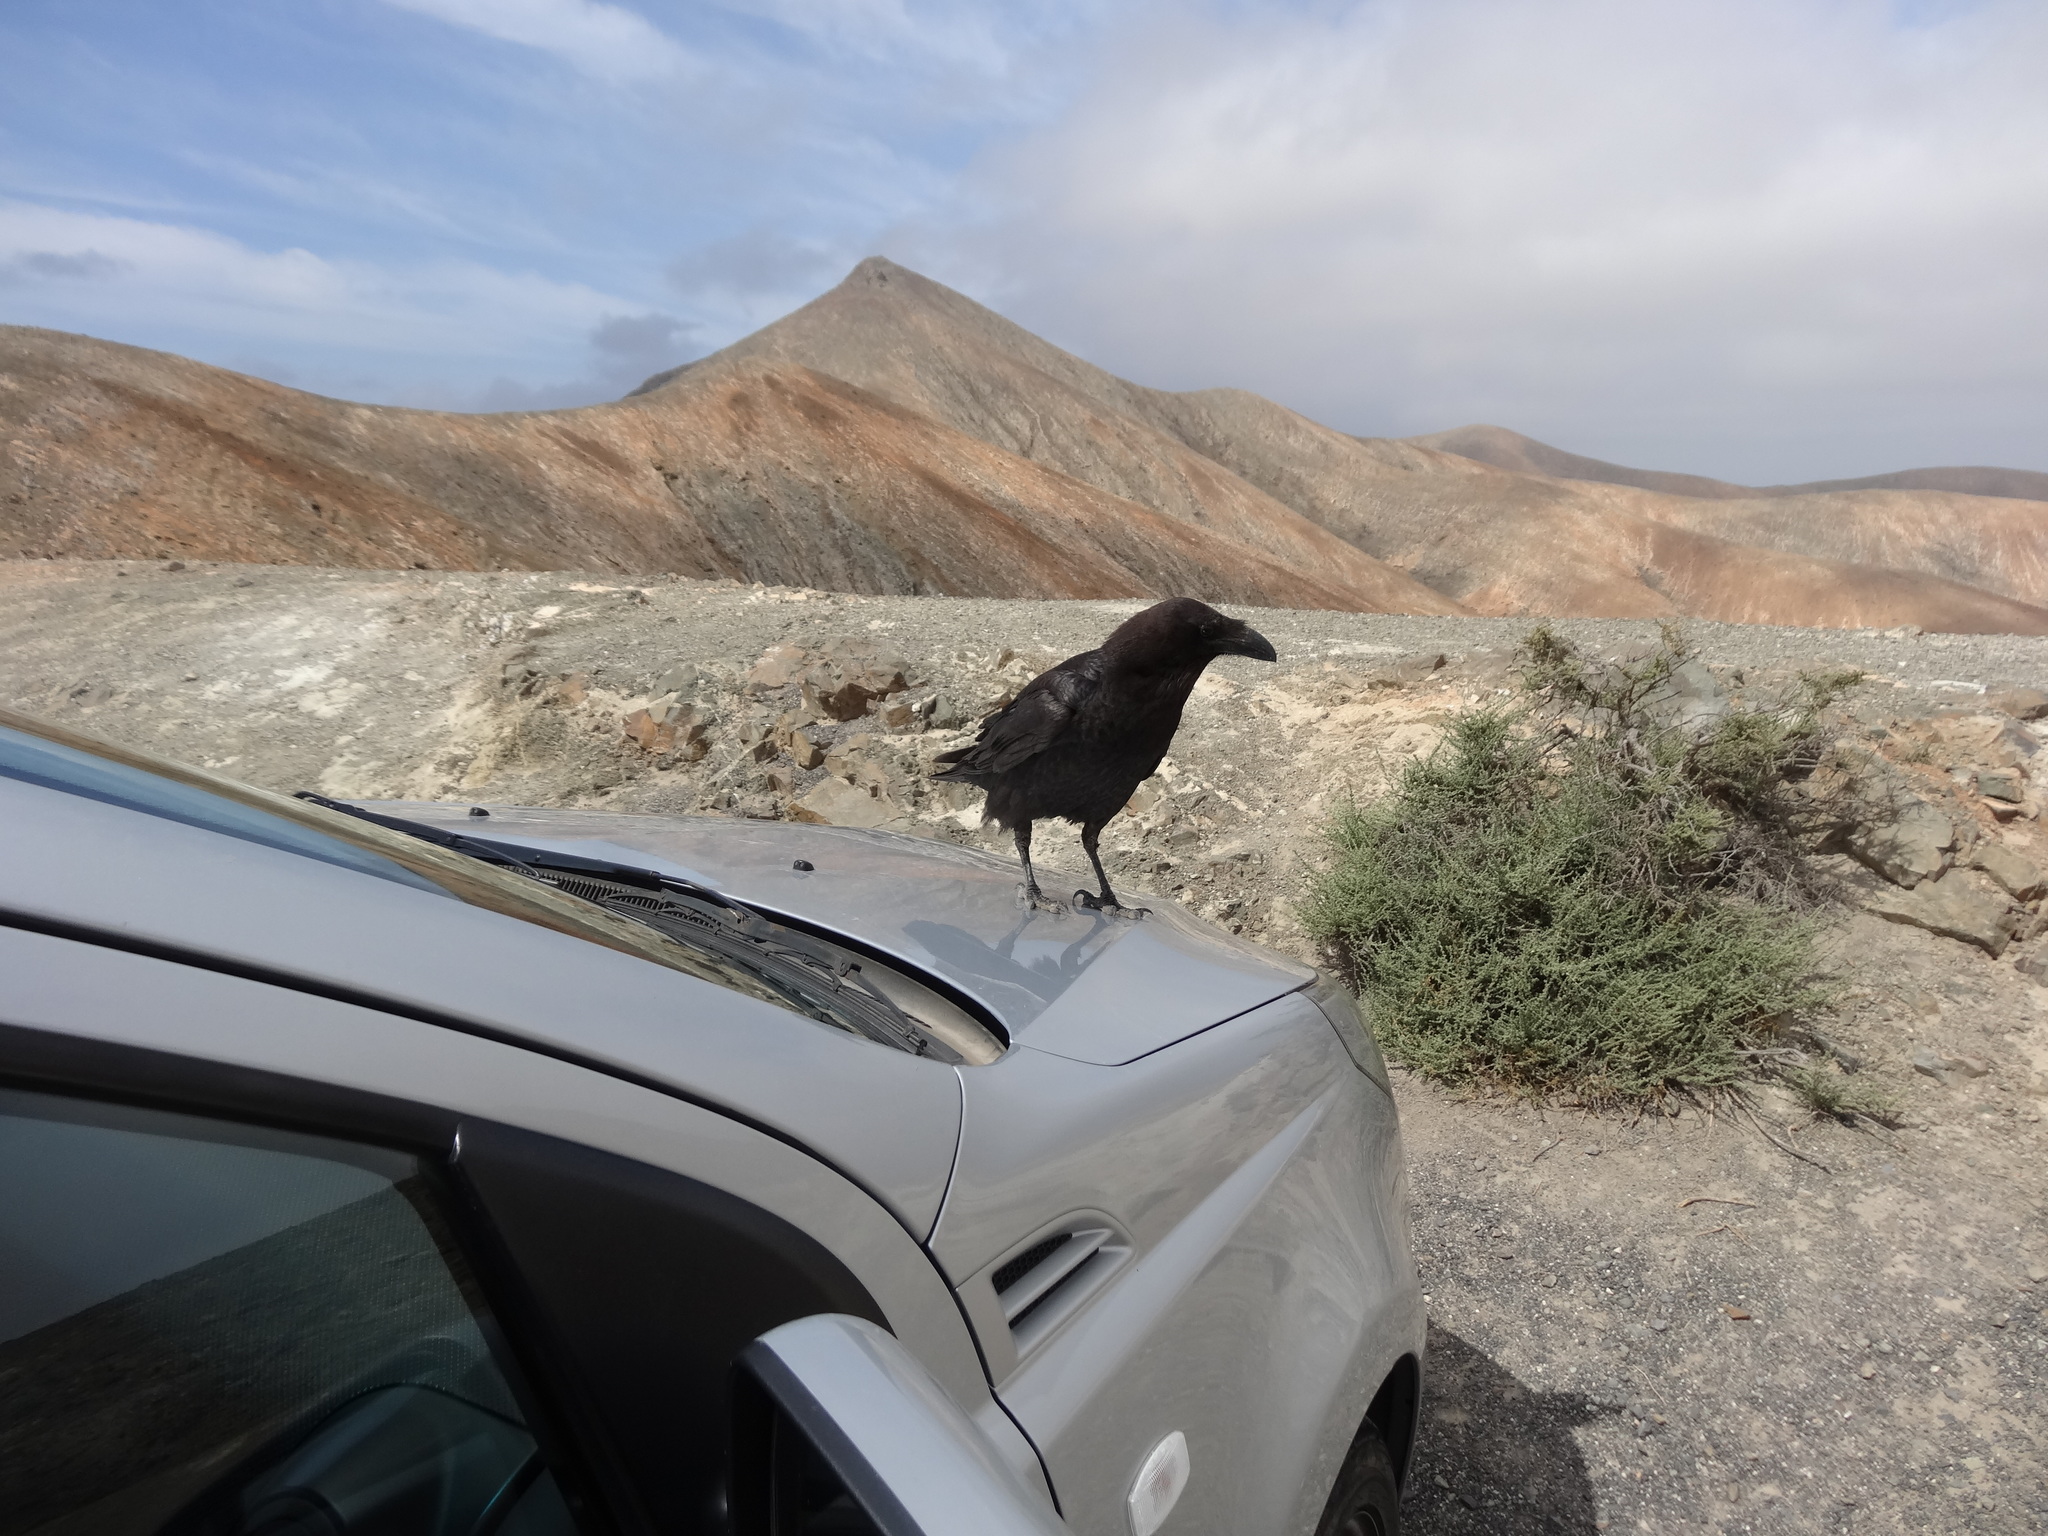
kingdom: Animalia
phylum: Chordata
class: Aves
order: Passeriformes
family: Corvidae
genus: Corvus
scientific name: Corvus corax
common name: Common raven
